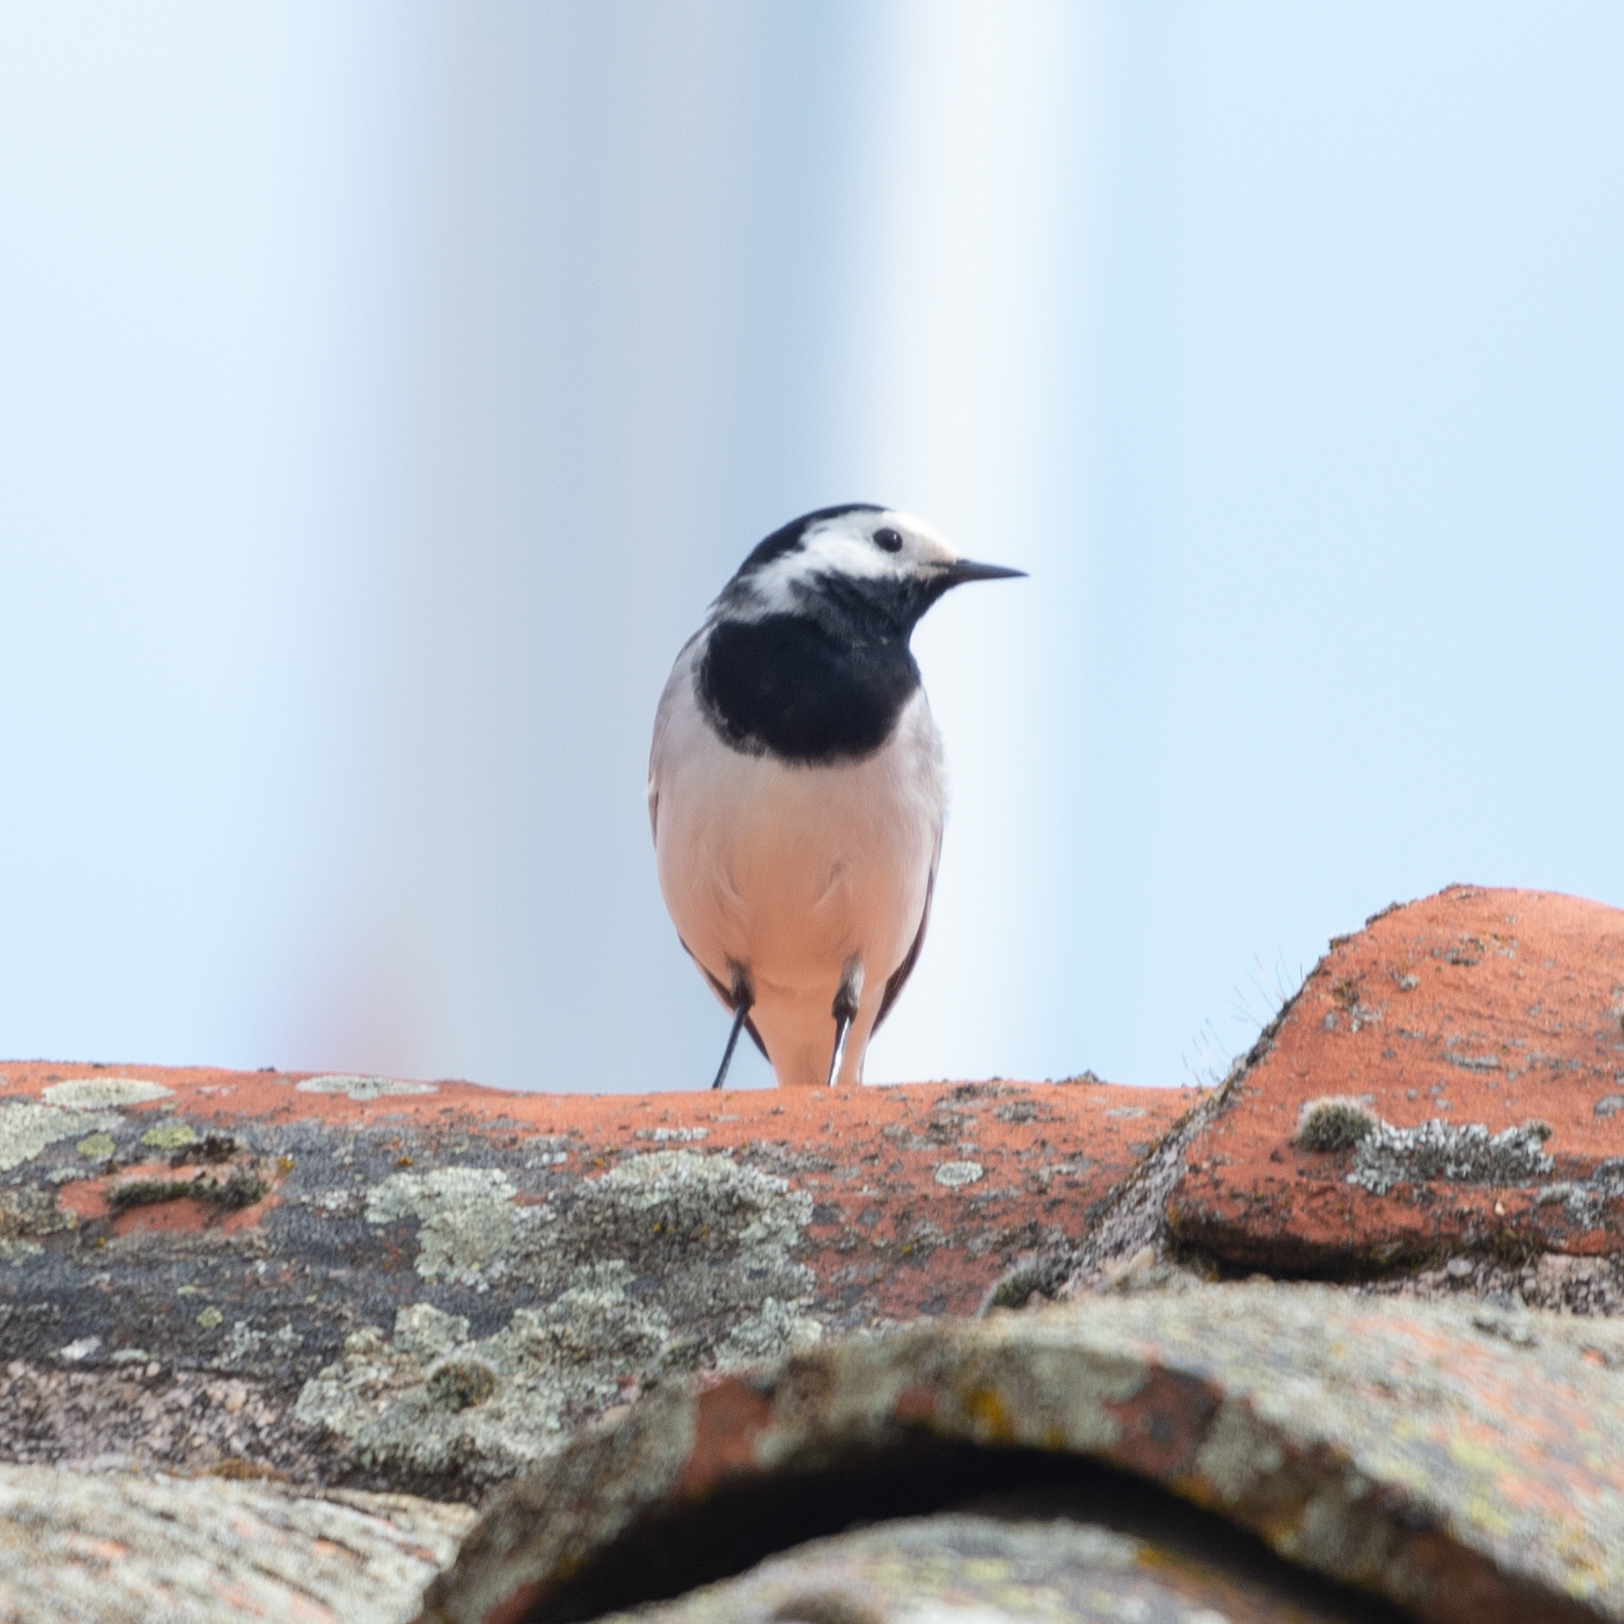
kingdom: Animalia
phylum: Chordata
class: Aves
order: Passeriformes
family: Motacillidae
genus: Motacilla
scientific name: Motacilla alba
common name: White wagtail
